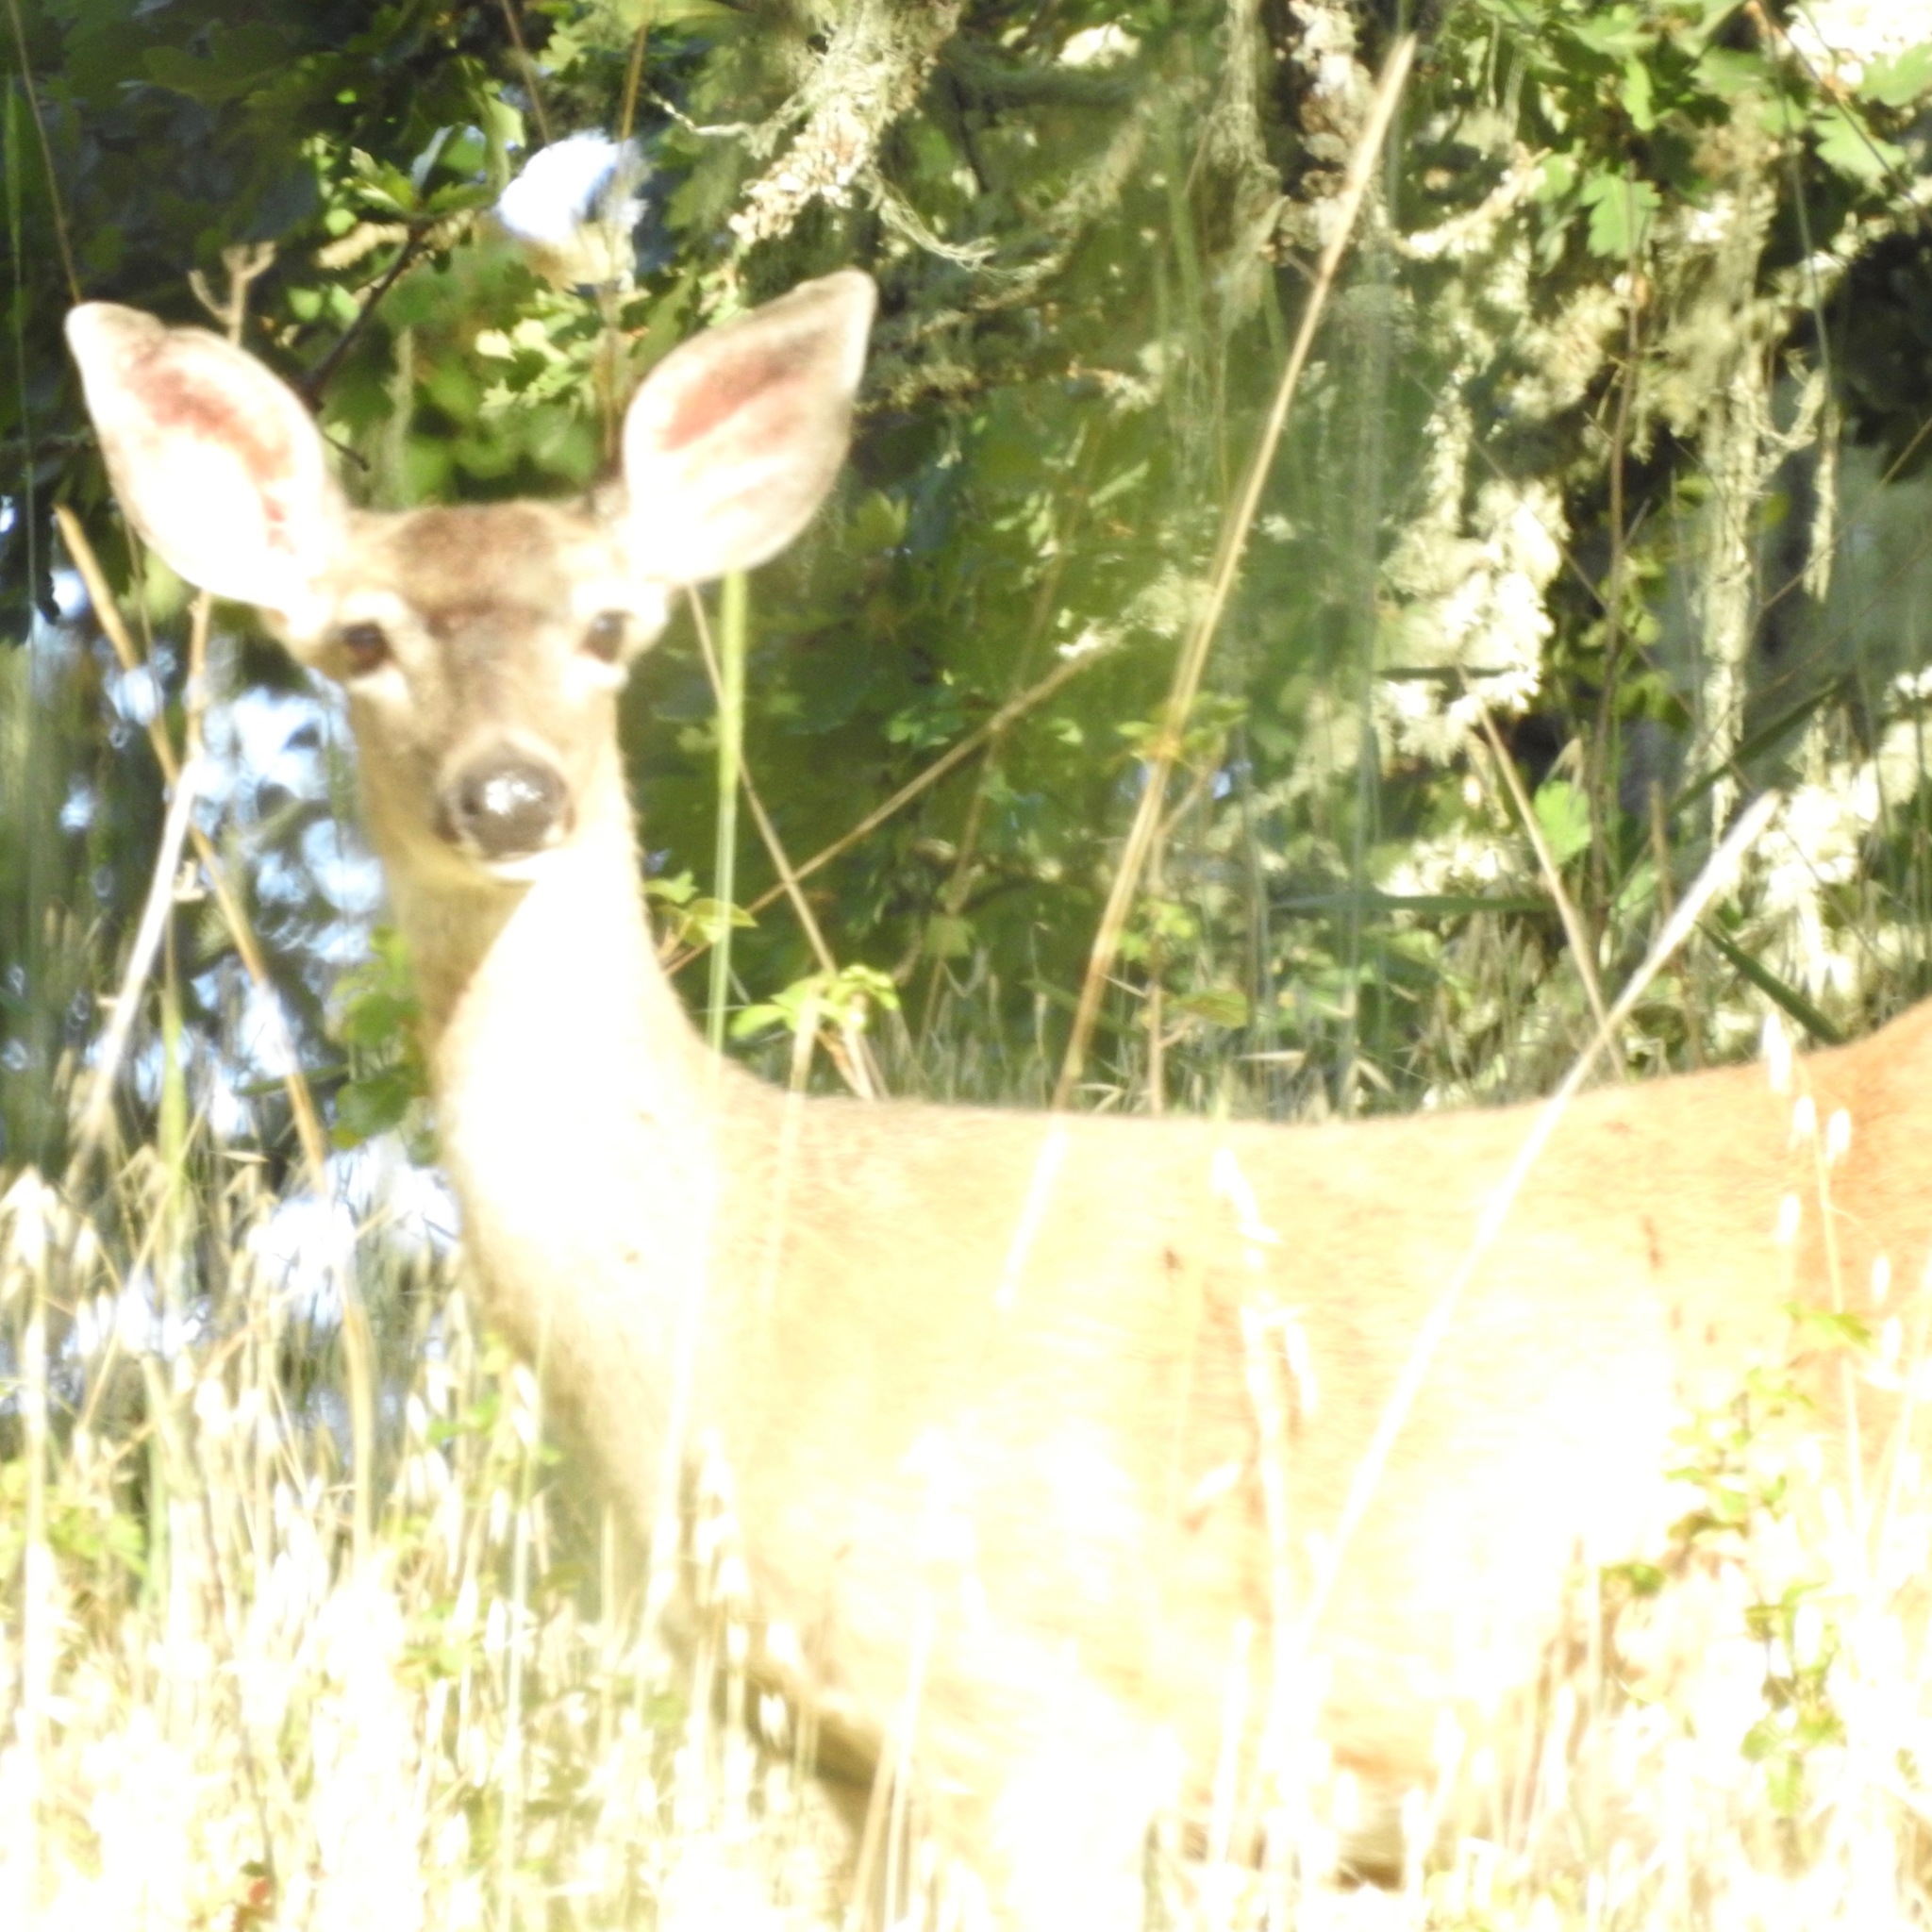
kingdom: Animalia
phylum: Chordata
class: Mammalia
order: Artiodactyla
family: Cervidae
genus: Odocoileus
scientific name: Odocoileus hemionus
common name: Mule deer
